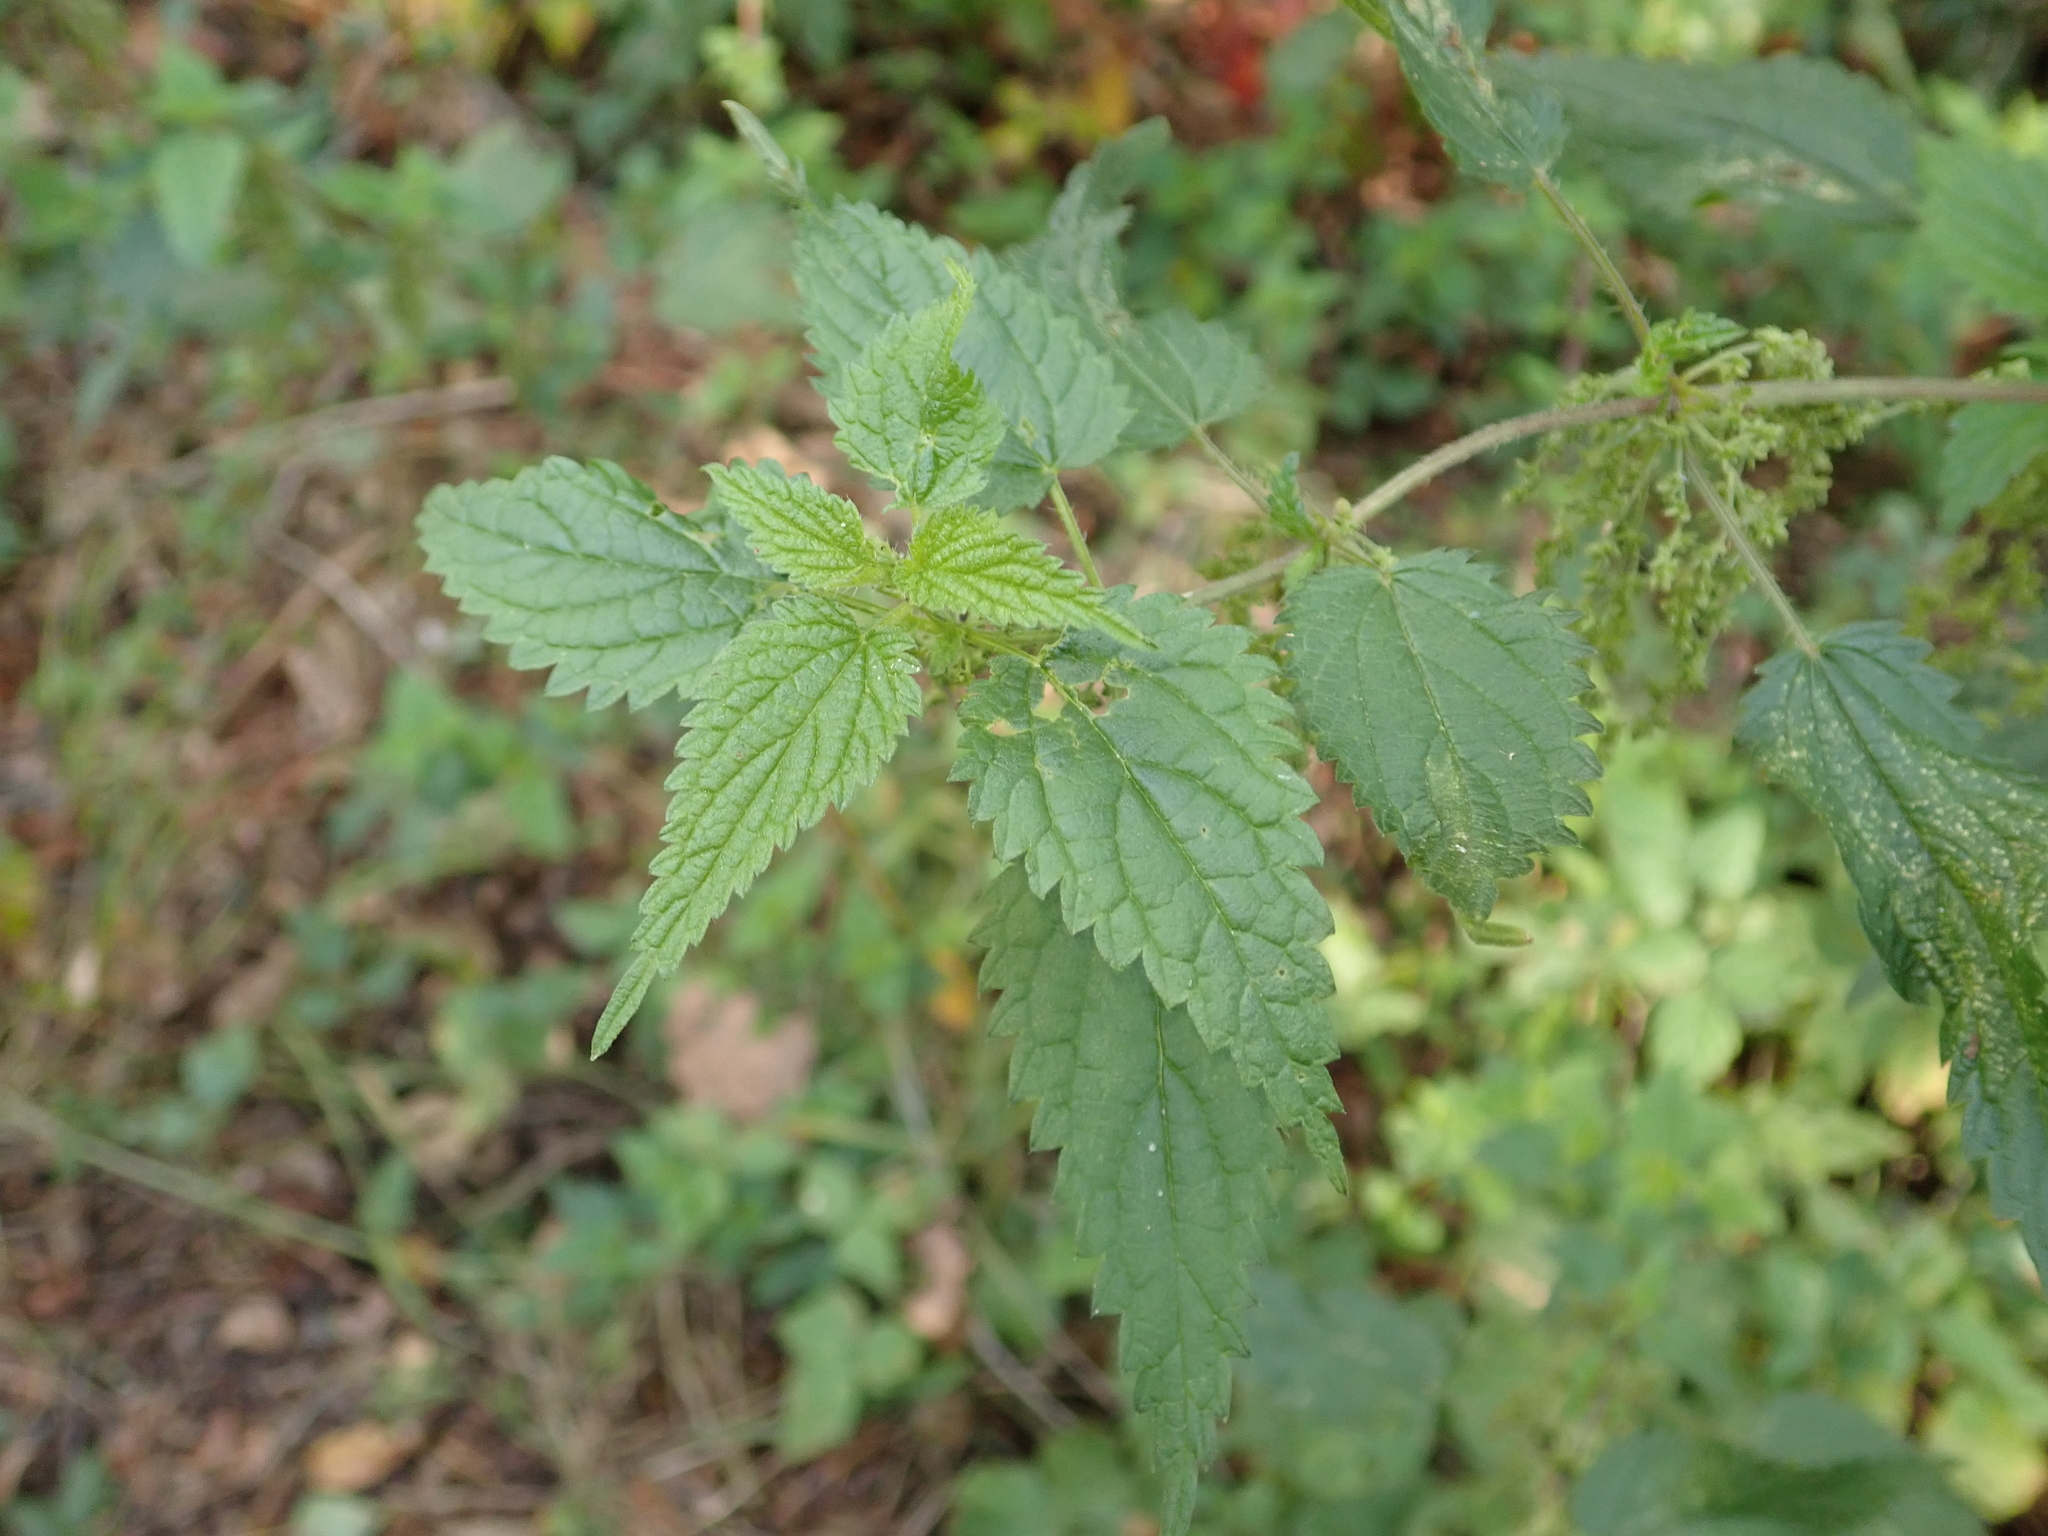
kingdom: Plantae
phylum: Tracheophyta
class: Magnoliopsida
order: Rosales
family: Urticaceae
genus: Urtica
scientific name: Urtica dioica
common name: Common nettle
